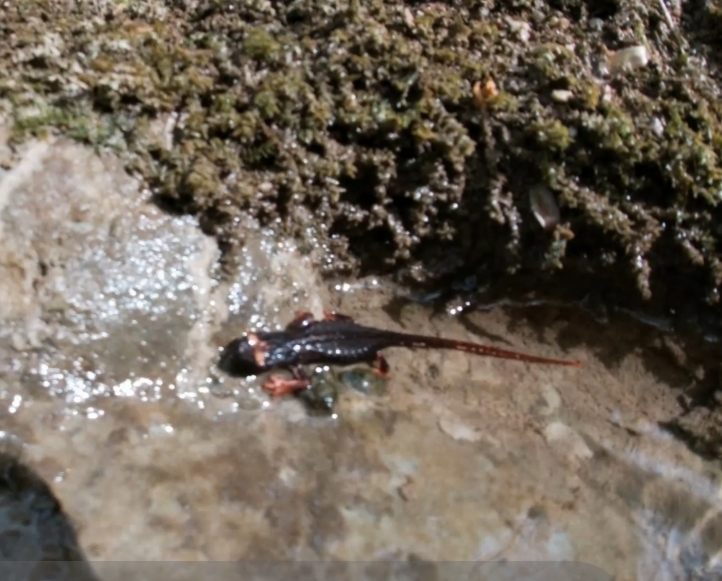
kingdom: Animalia
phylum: Chordata
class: Amphibia
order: Caudata
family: Salamandridae
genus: Salamandrina
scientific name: Salamandrina terdigitata
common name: Southern spectacled salamander
